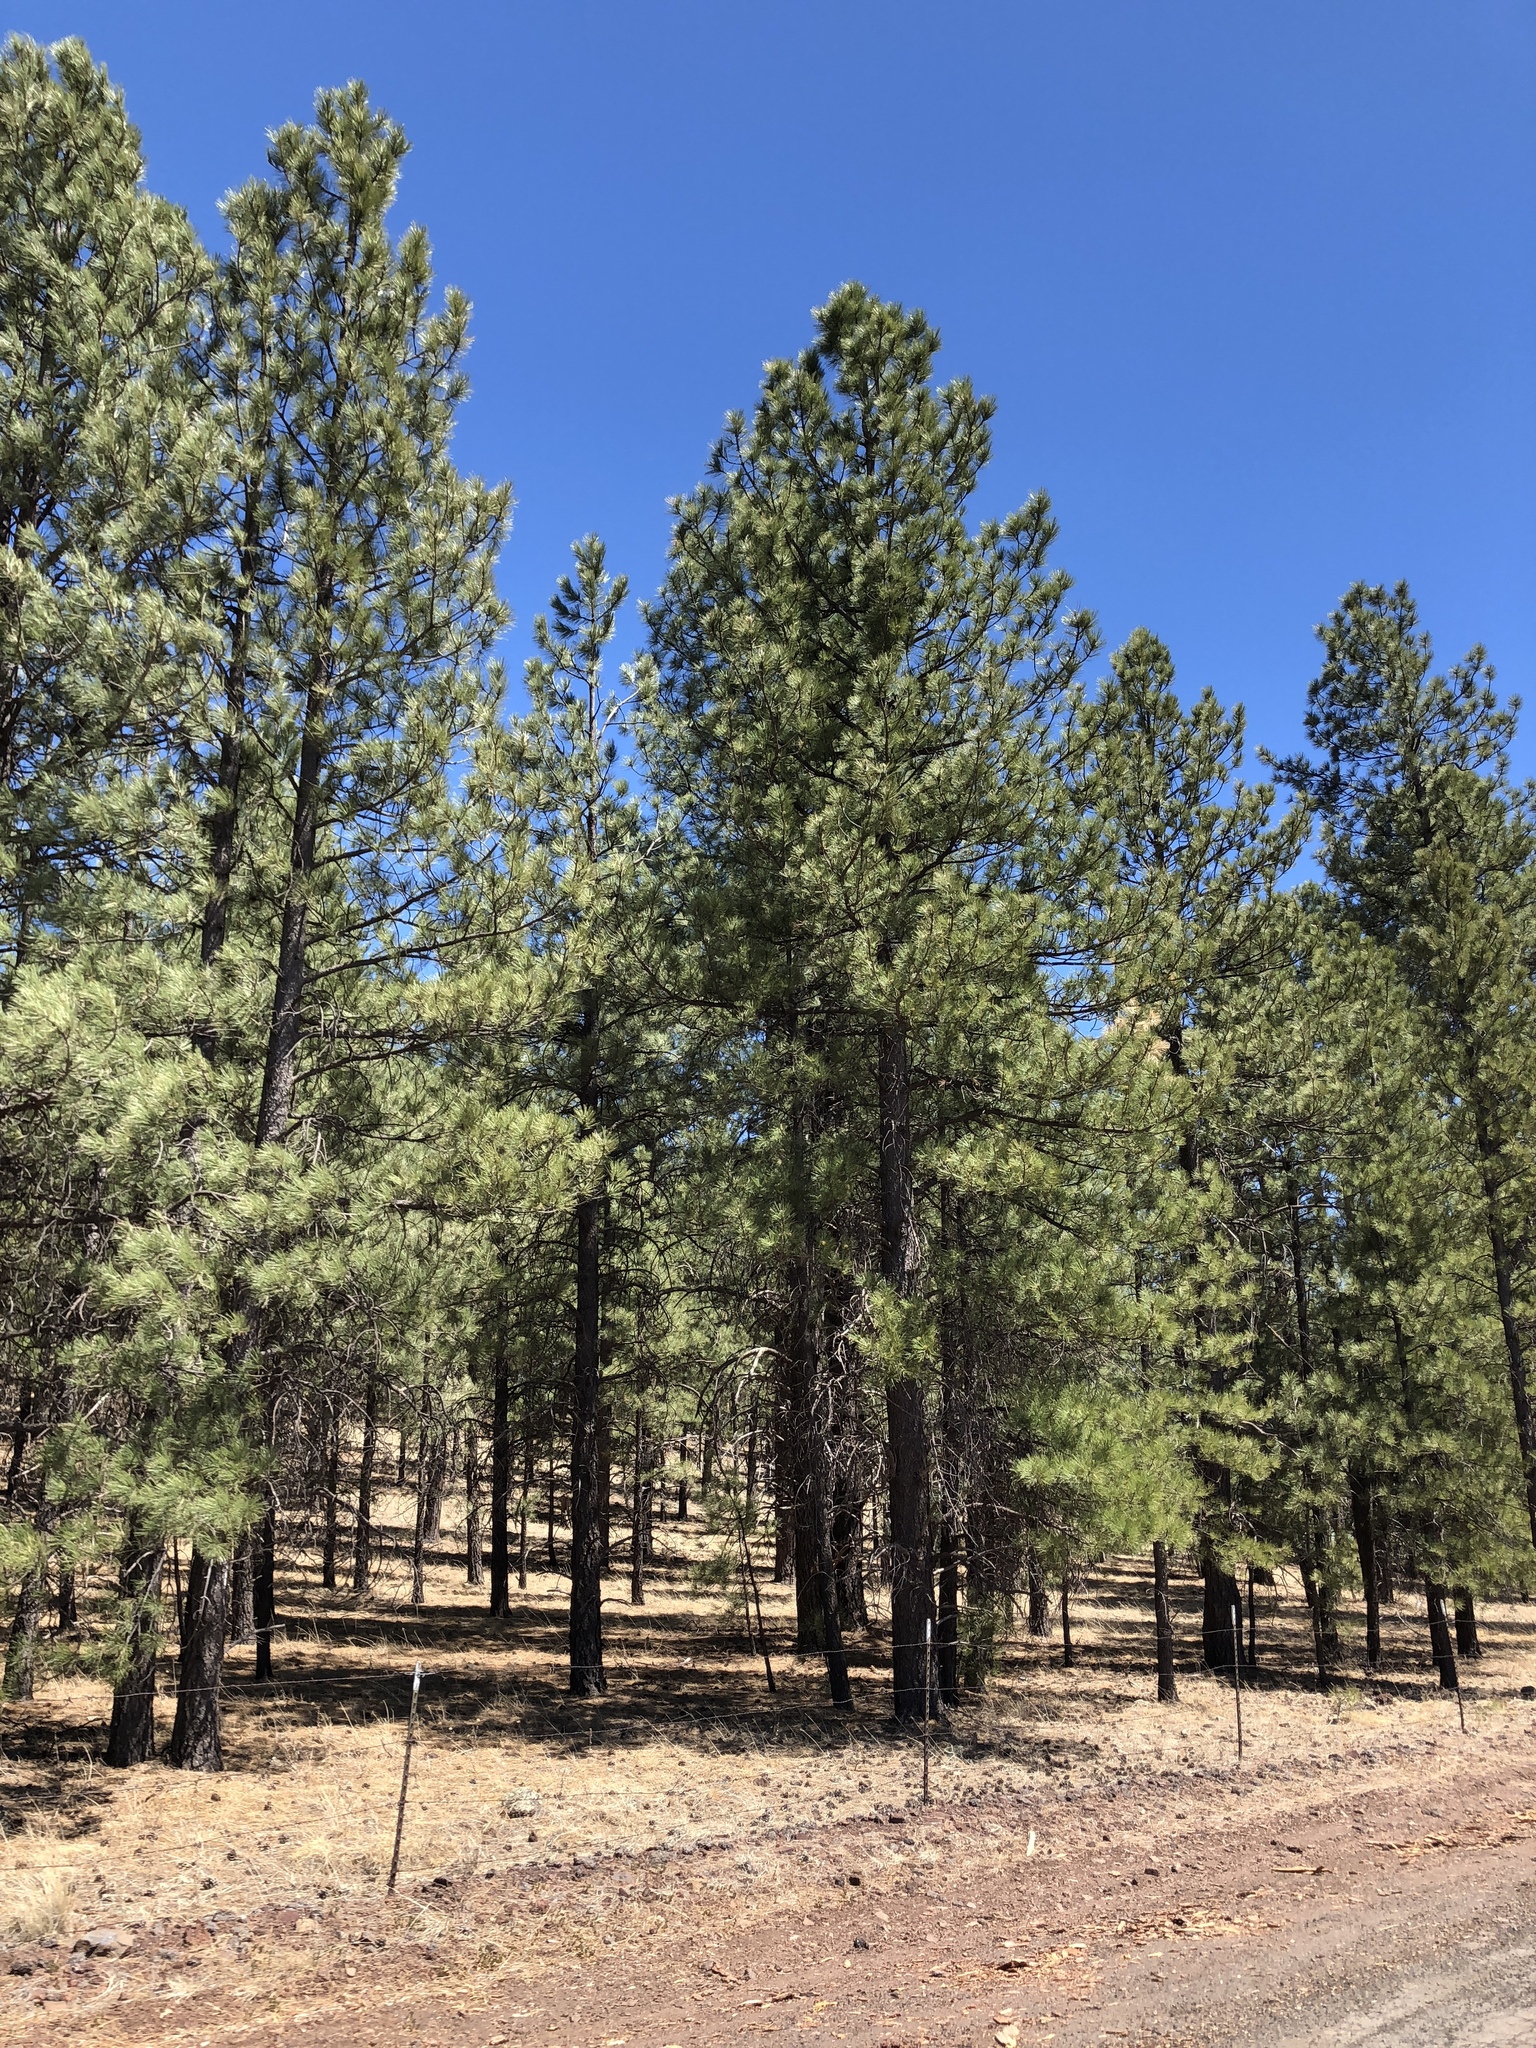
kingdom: Plantae
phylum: Tracheophyta
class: Pinopsida
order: Pinales
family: Pinaceae
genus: Pinus
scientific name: Pinus ponderosa
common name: Western yellow-pine
